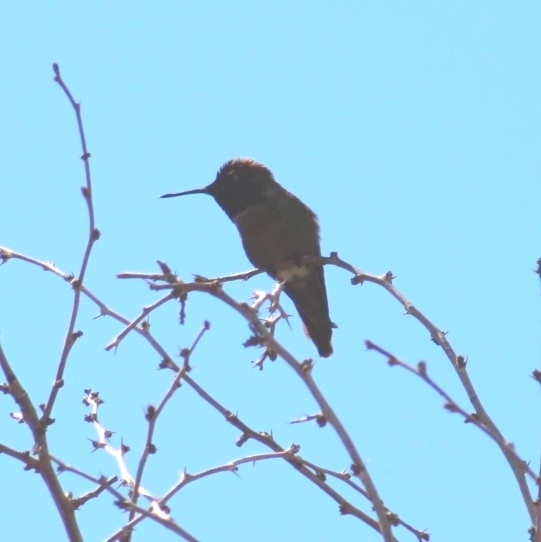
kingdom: Animalia
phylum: Chordata
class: Aves
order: Apodiformes
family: Trochilidae
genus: Calypte
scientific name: Calypte anna
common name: Anna's hummingbird
